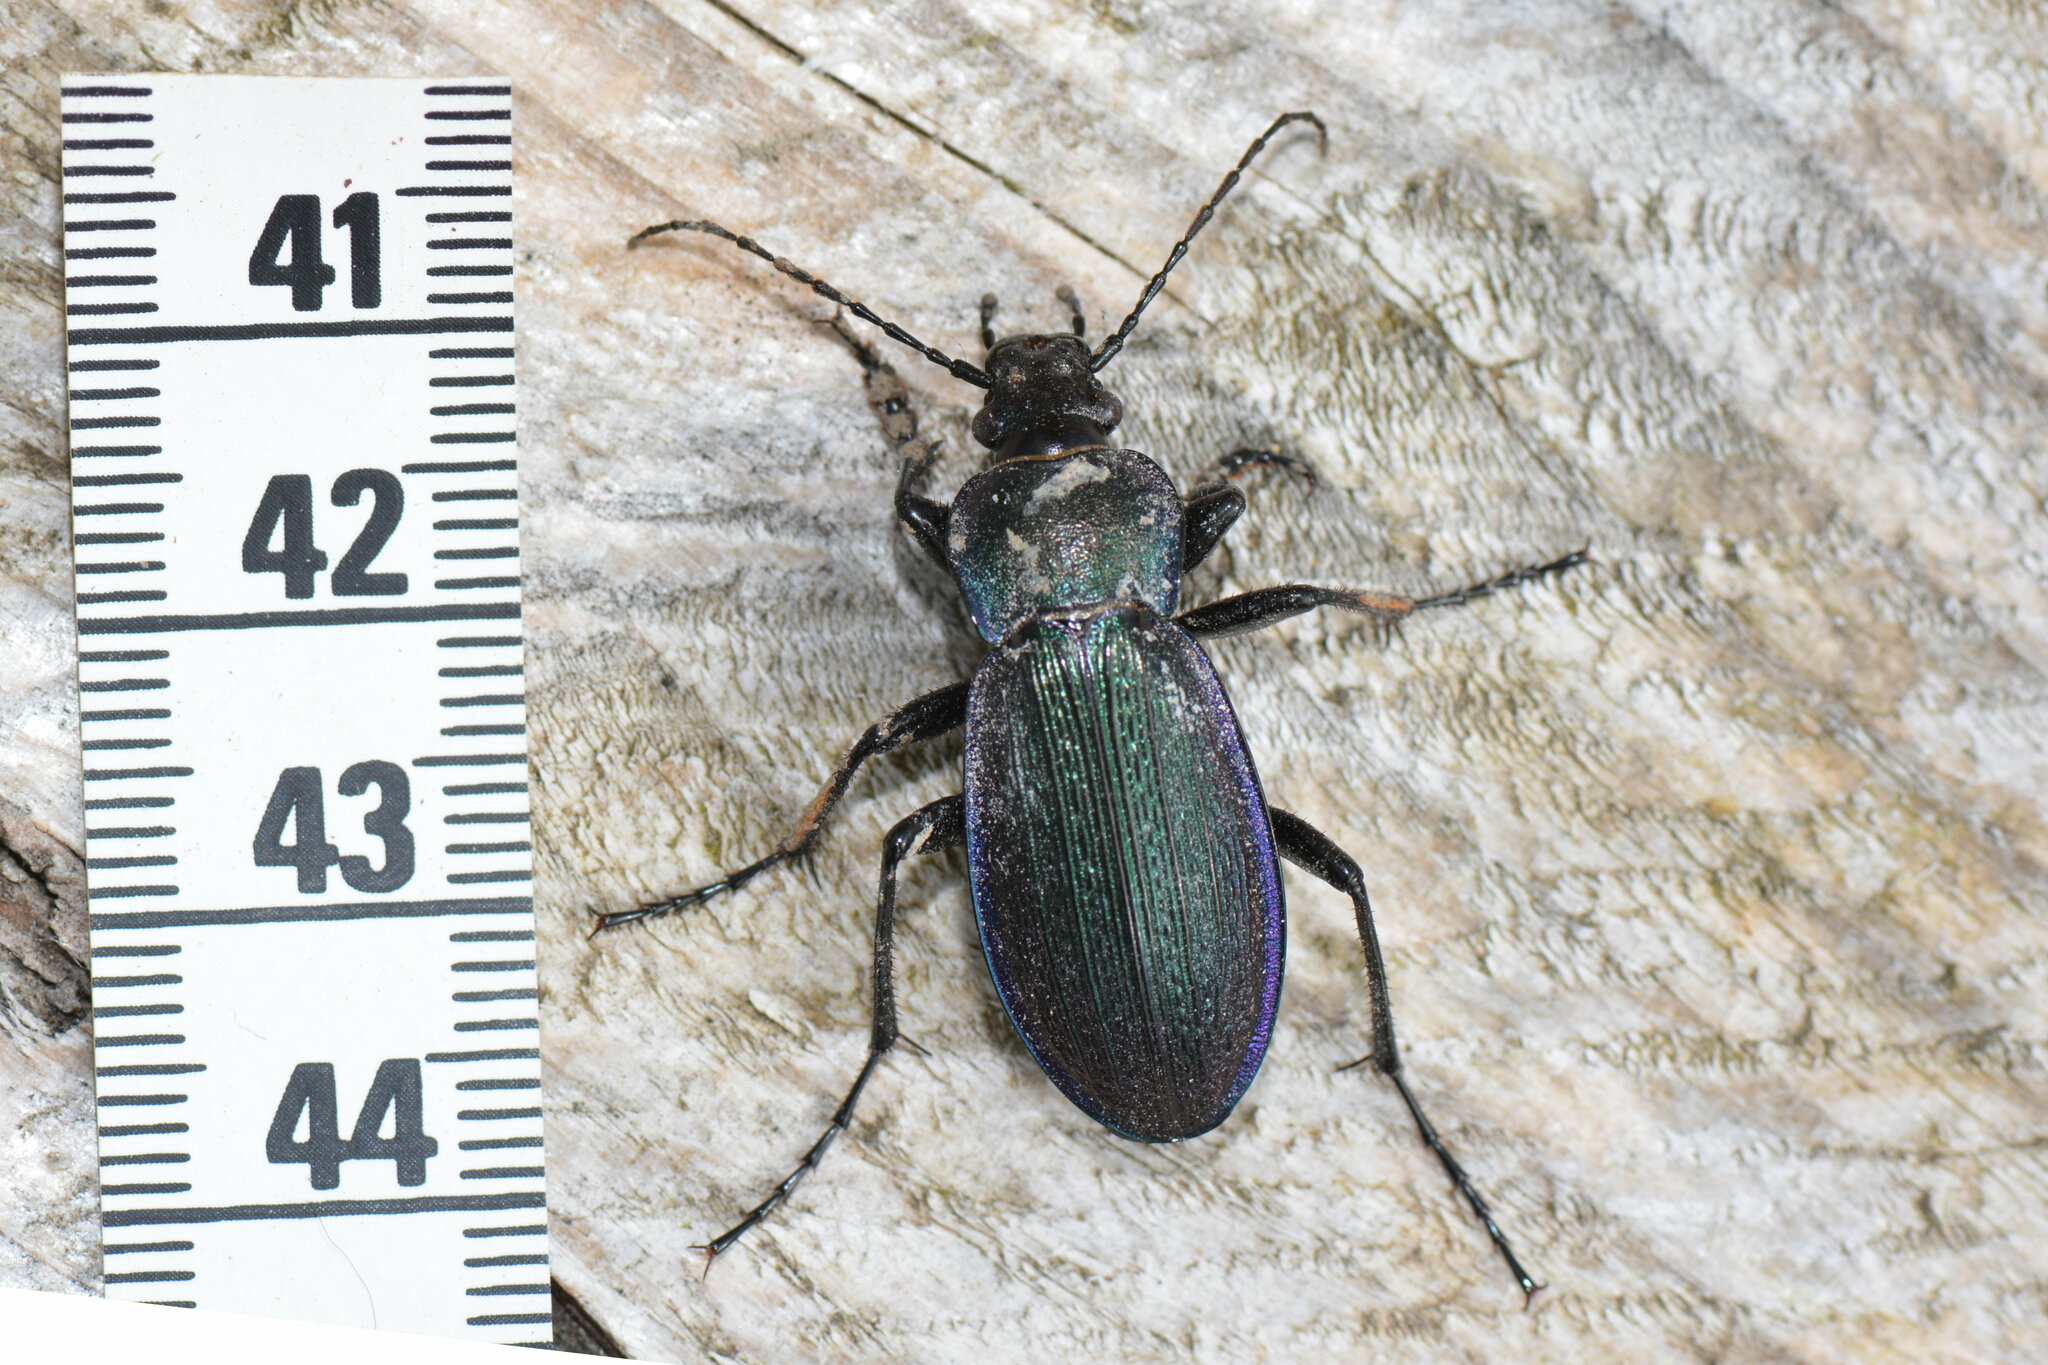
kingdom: Animalia
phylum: Arthropoda
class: Insecta
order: Coleoptera
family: Carabidae
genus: Carabus
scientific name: Carabus monilis
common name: Necklace ground beetle
